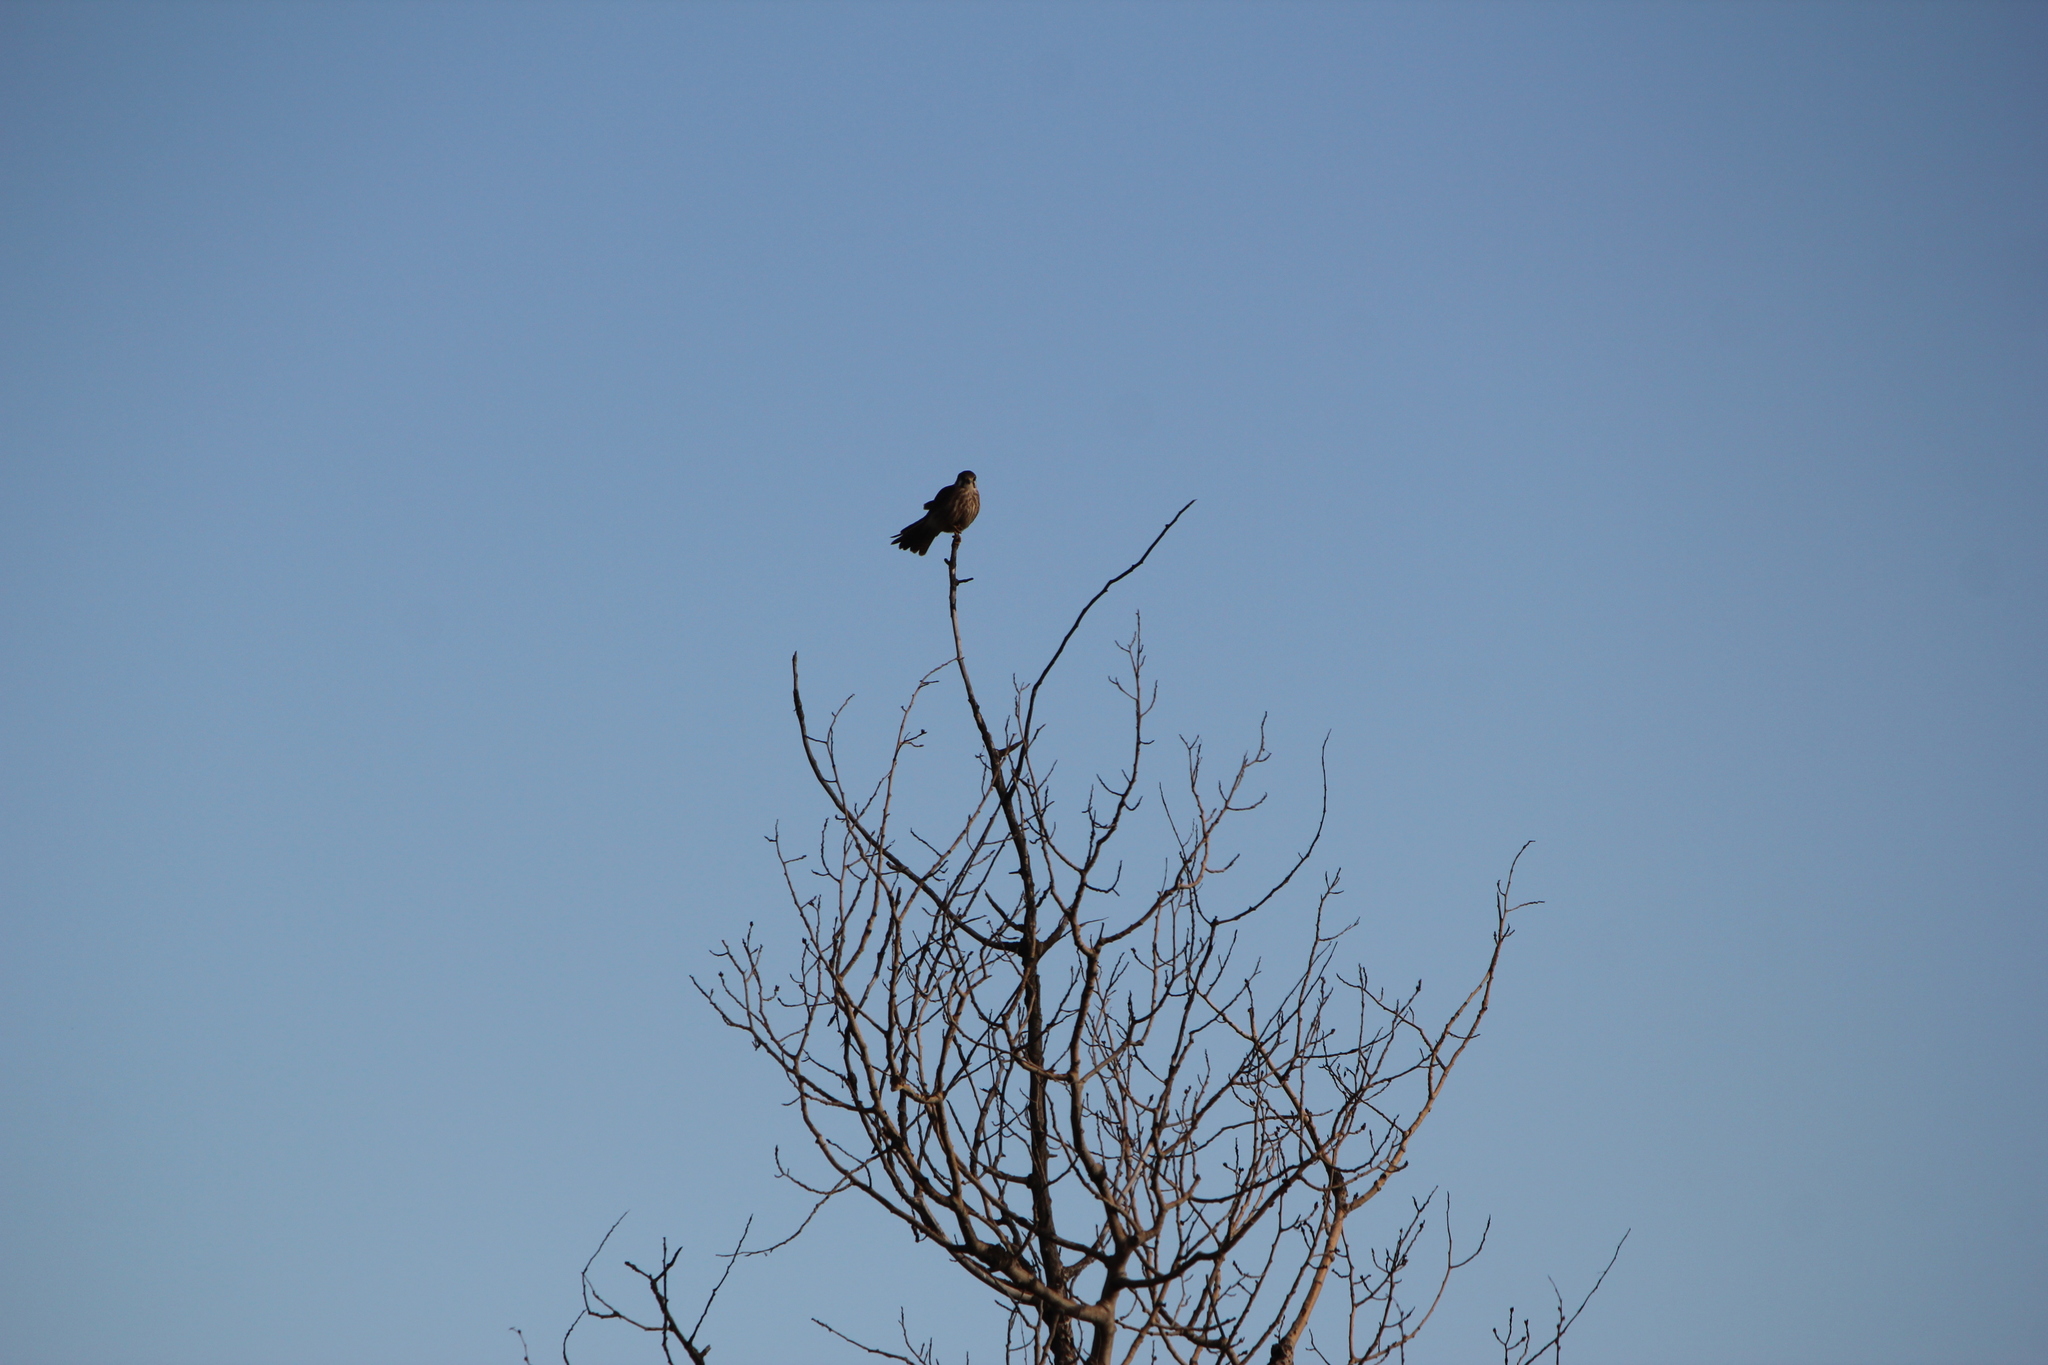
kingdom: Animalia
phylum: Chordata
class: Aves
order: Falconiformes
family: Falconidae
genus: Falco
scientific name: Falco sparverius
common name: American kestrel
